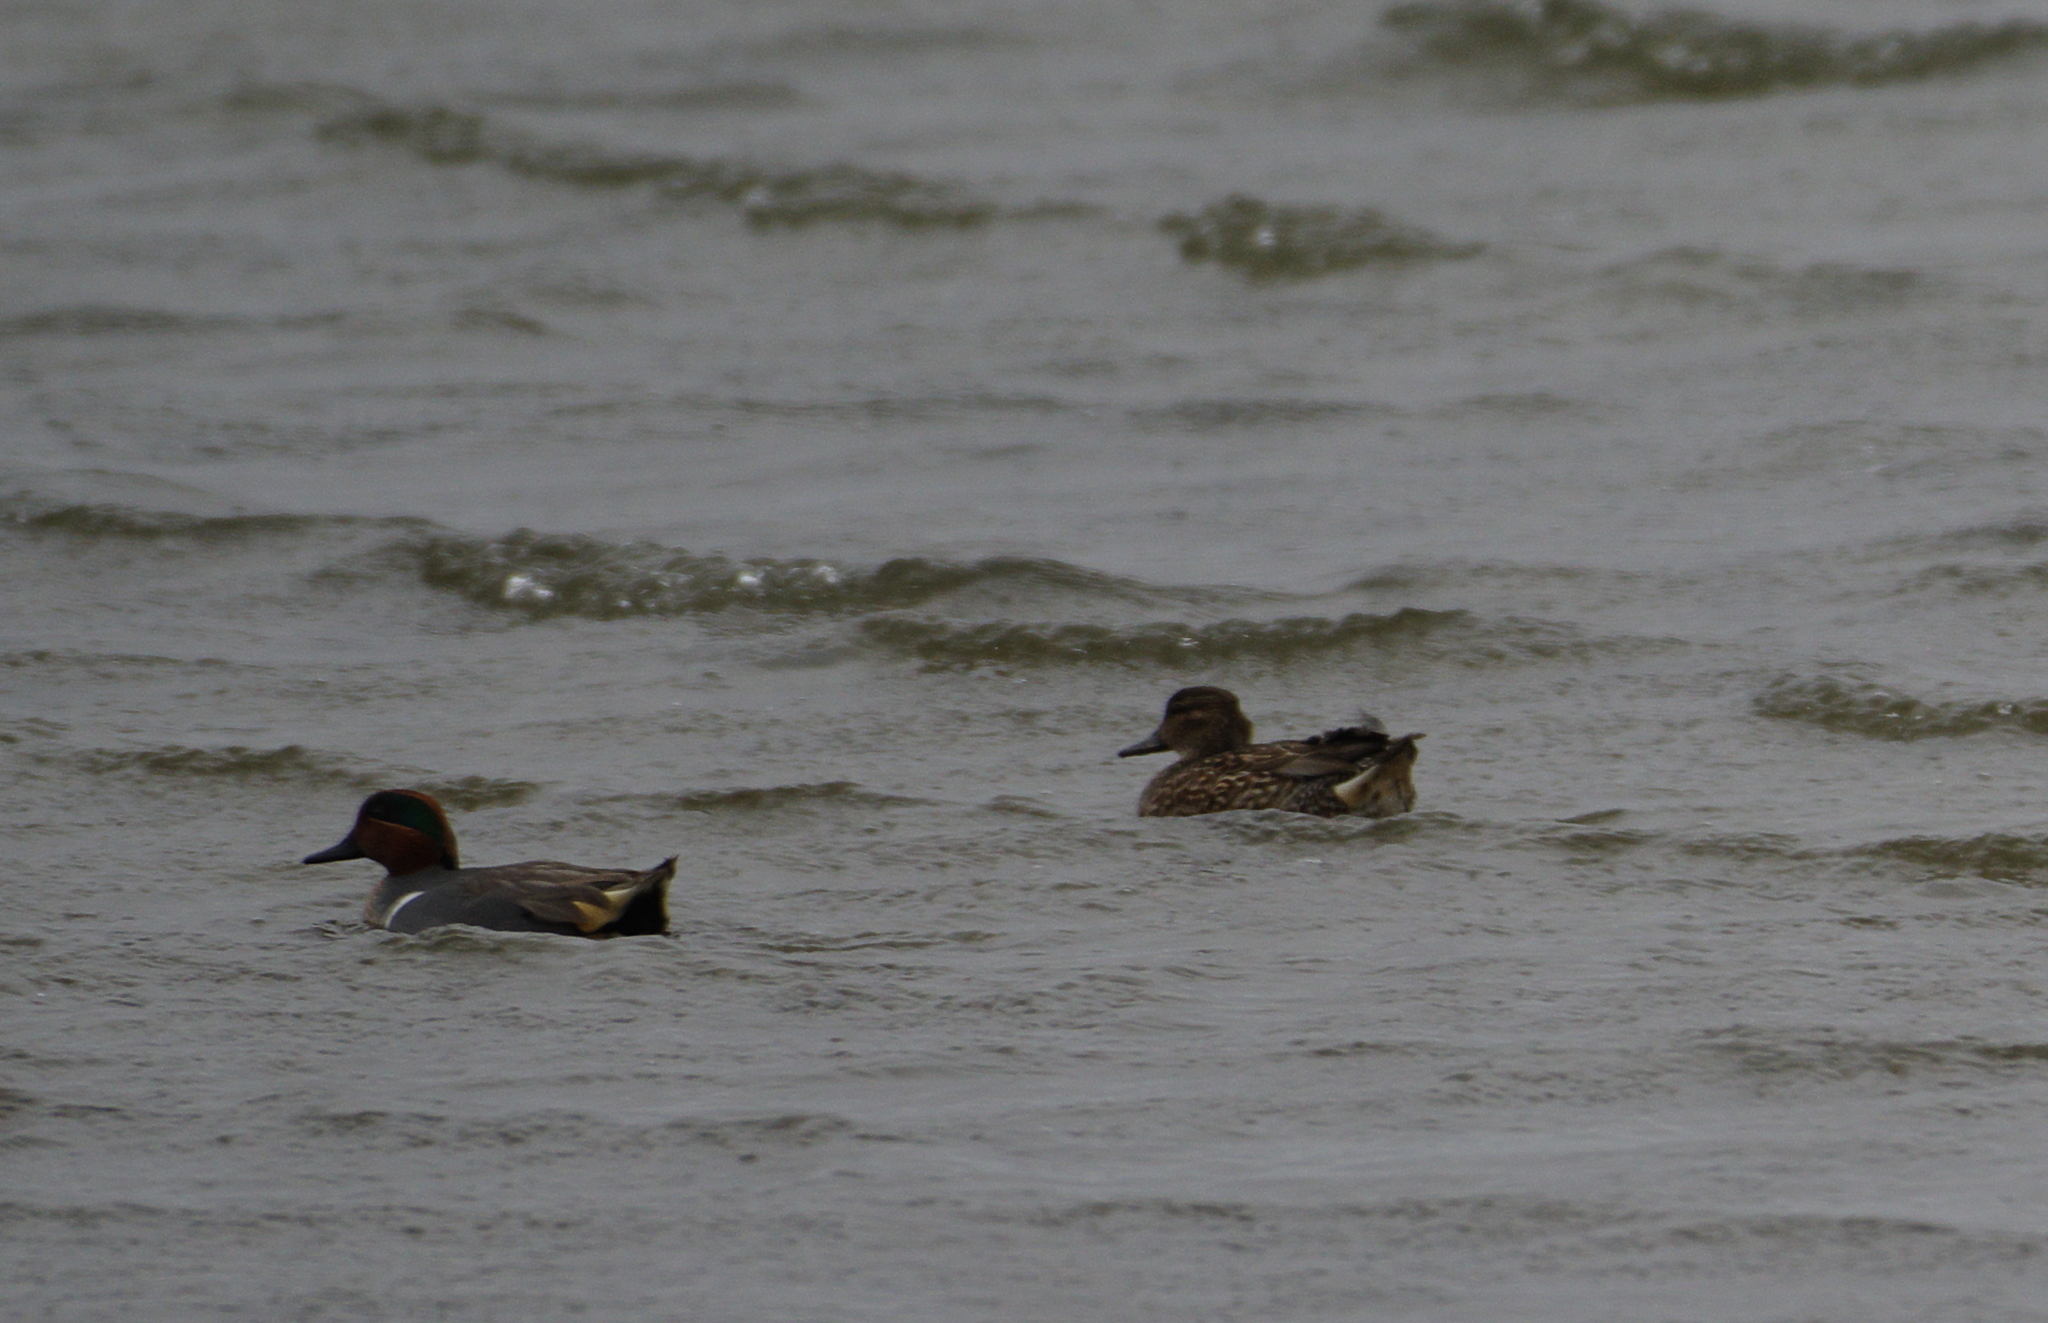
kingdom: Animalia
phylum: Chordata
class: Aves
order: Anseriformes
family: Anatidae
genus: Anas
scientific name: Anas carolinensis
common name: Green-winged teal
